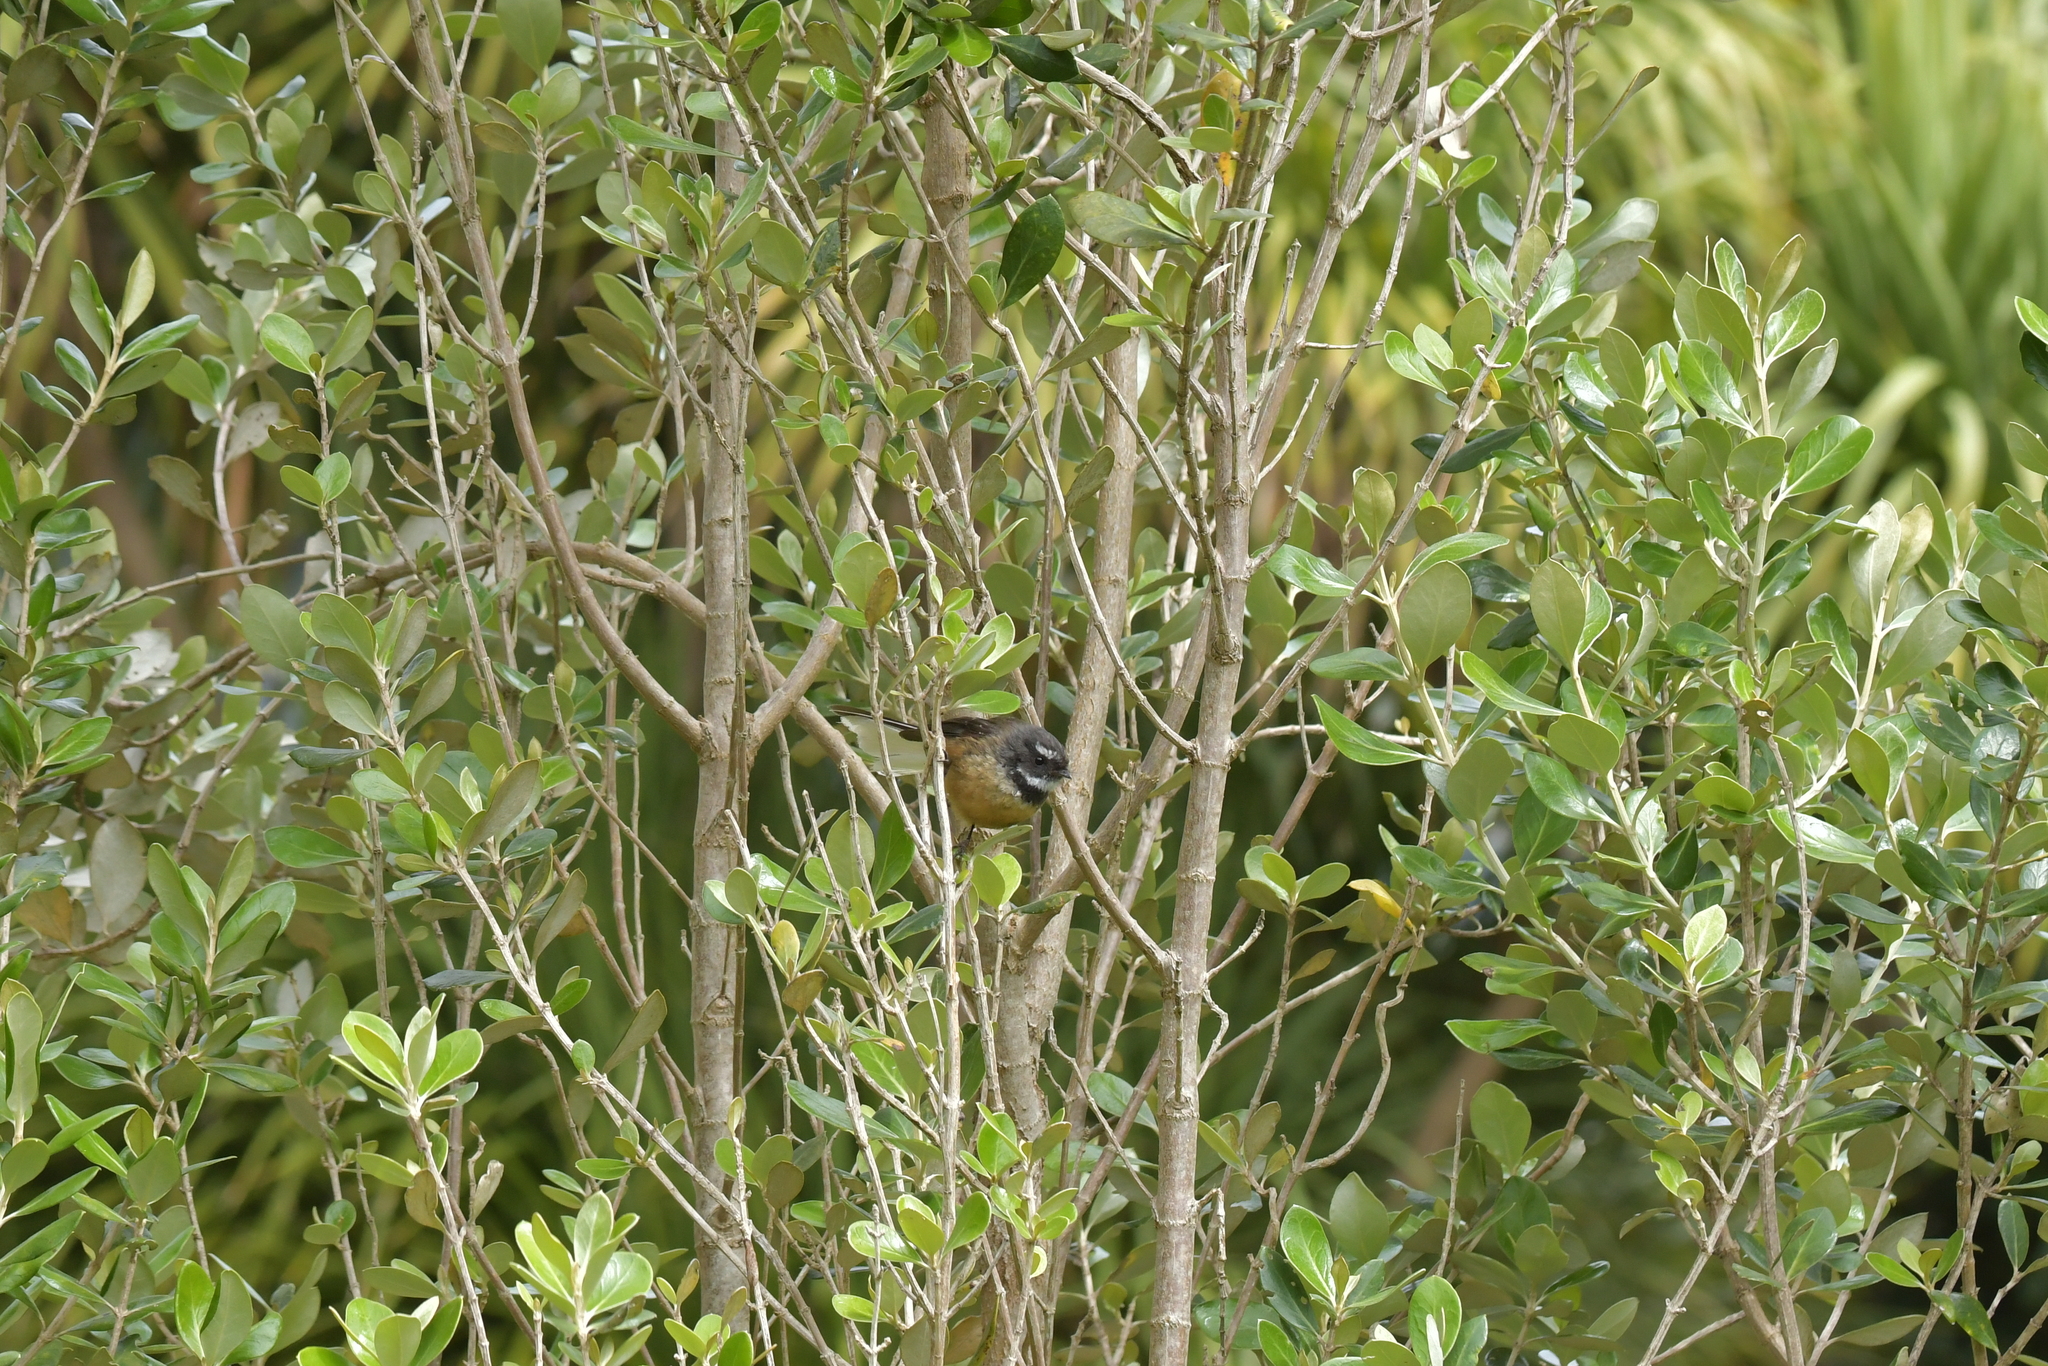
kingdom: Animalia
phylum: Chordata
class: Aves
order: Passeriformes
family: Rhipiduridae
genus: Rhipidura
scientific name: Rhipidura fuliginosa
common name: New zealand fantail
